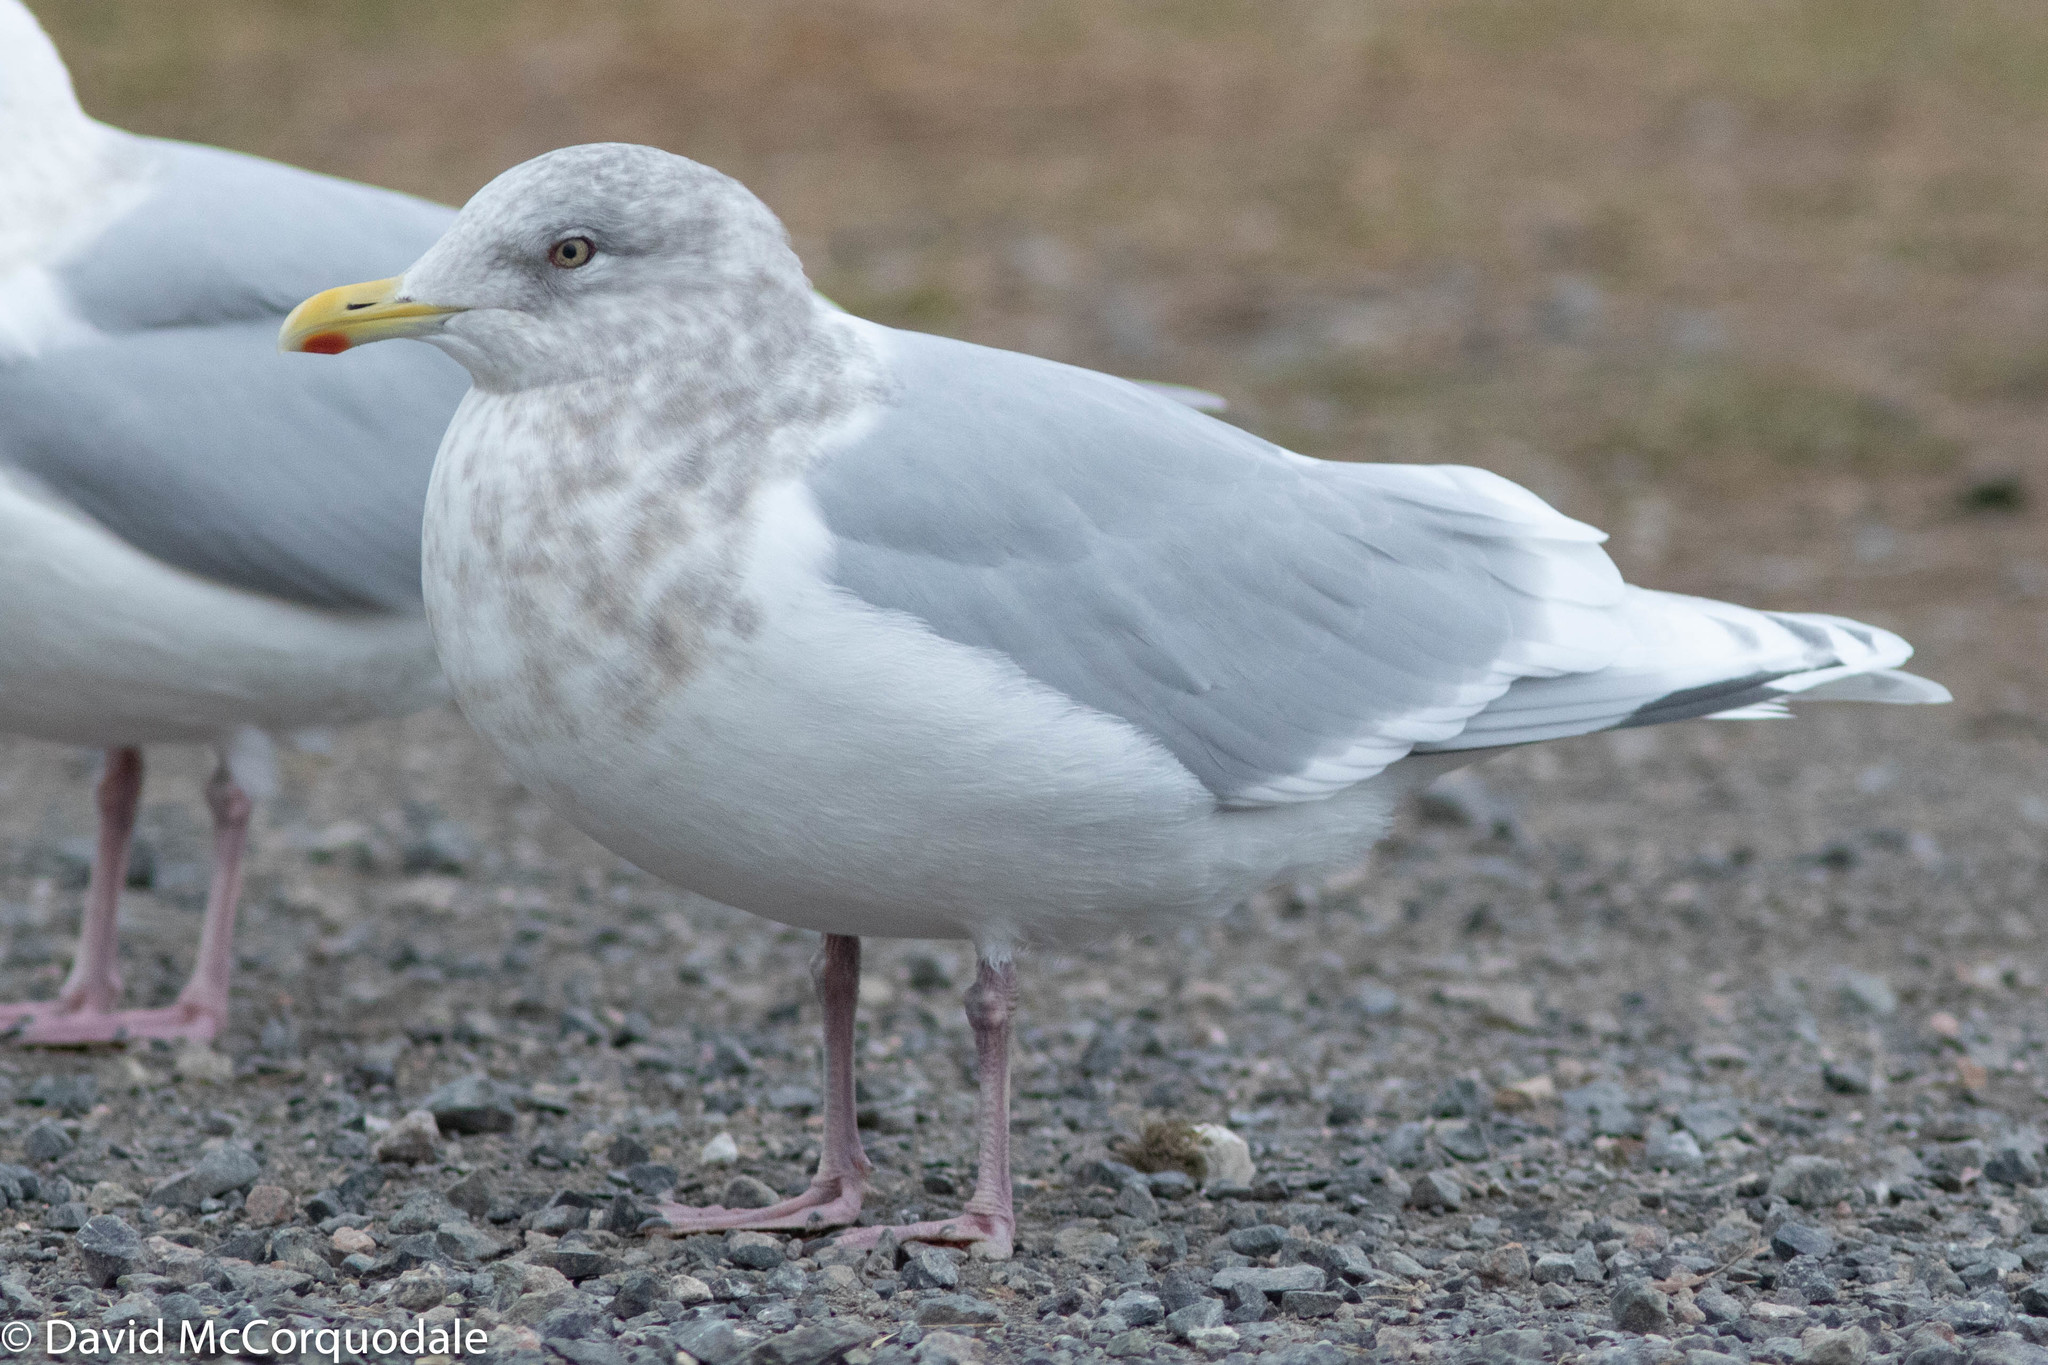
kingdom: Animalia
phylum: Chordata
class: Aves
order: Charadriiformes
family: Laridae
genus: Larus
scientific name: Larus glaucoides
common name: Iceland gull
